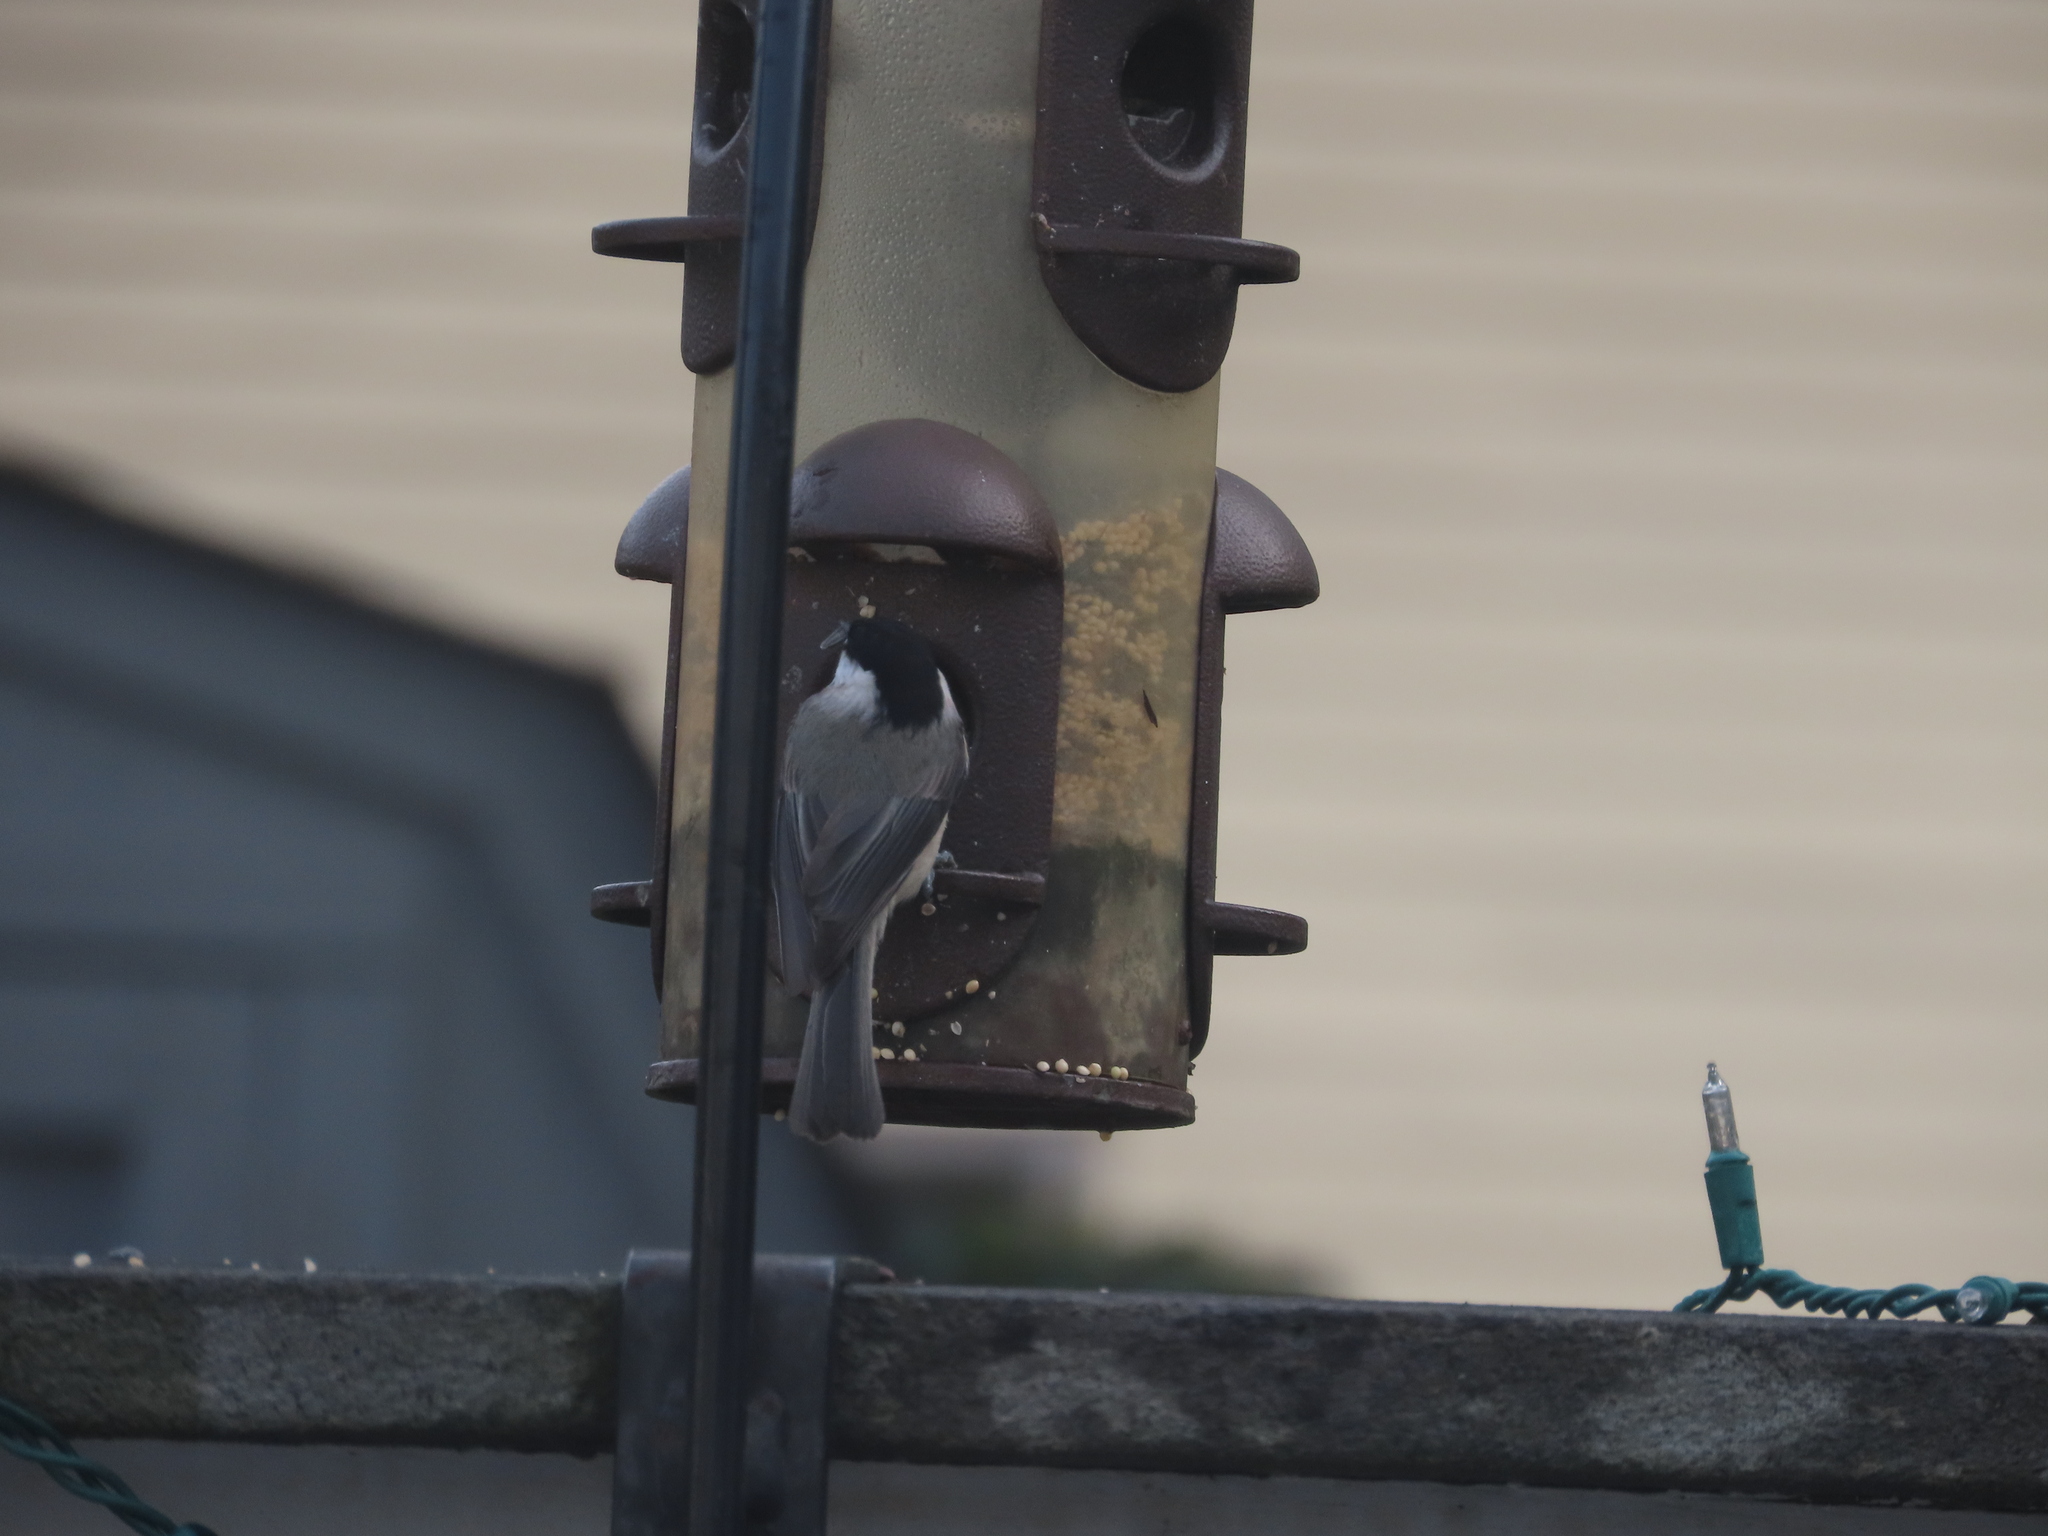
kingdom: Animalia
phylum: Chordata
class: Aves
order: Passeriformes
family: Paridae
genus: Poecile
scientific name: Poecile carolinensis
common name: Carolina chickadee
